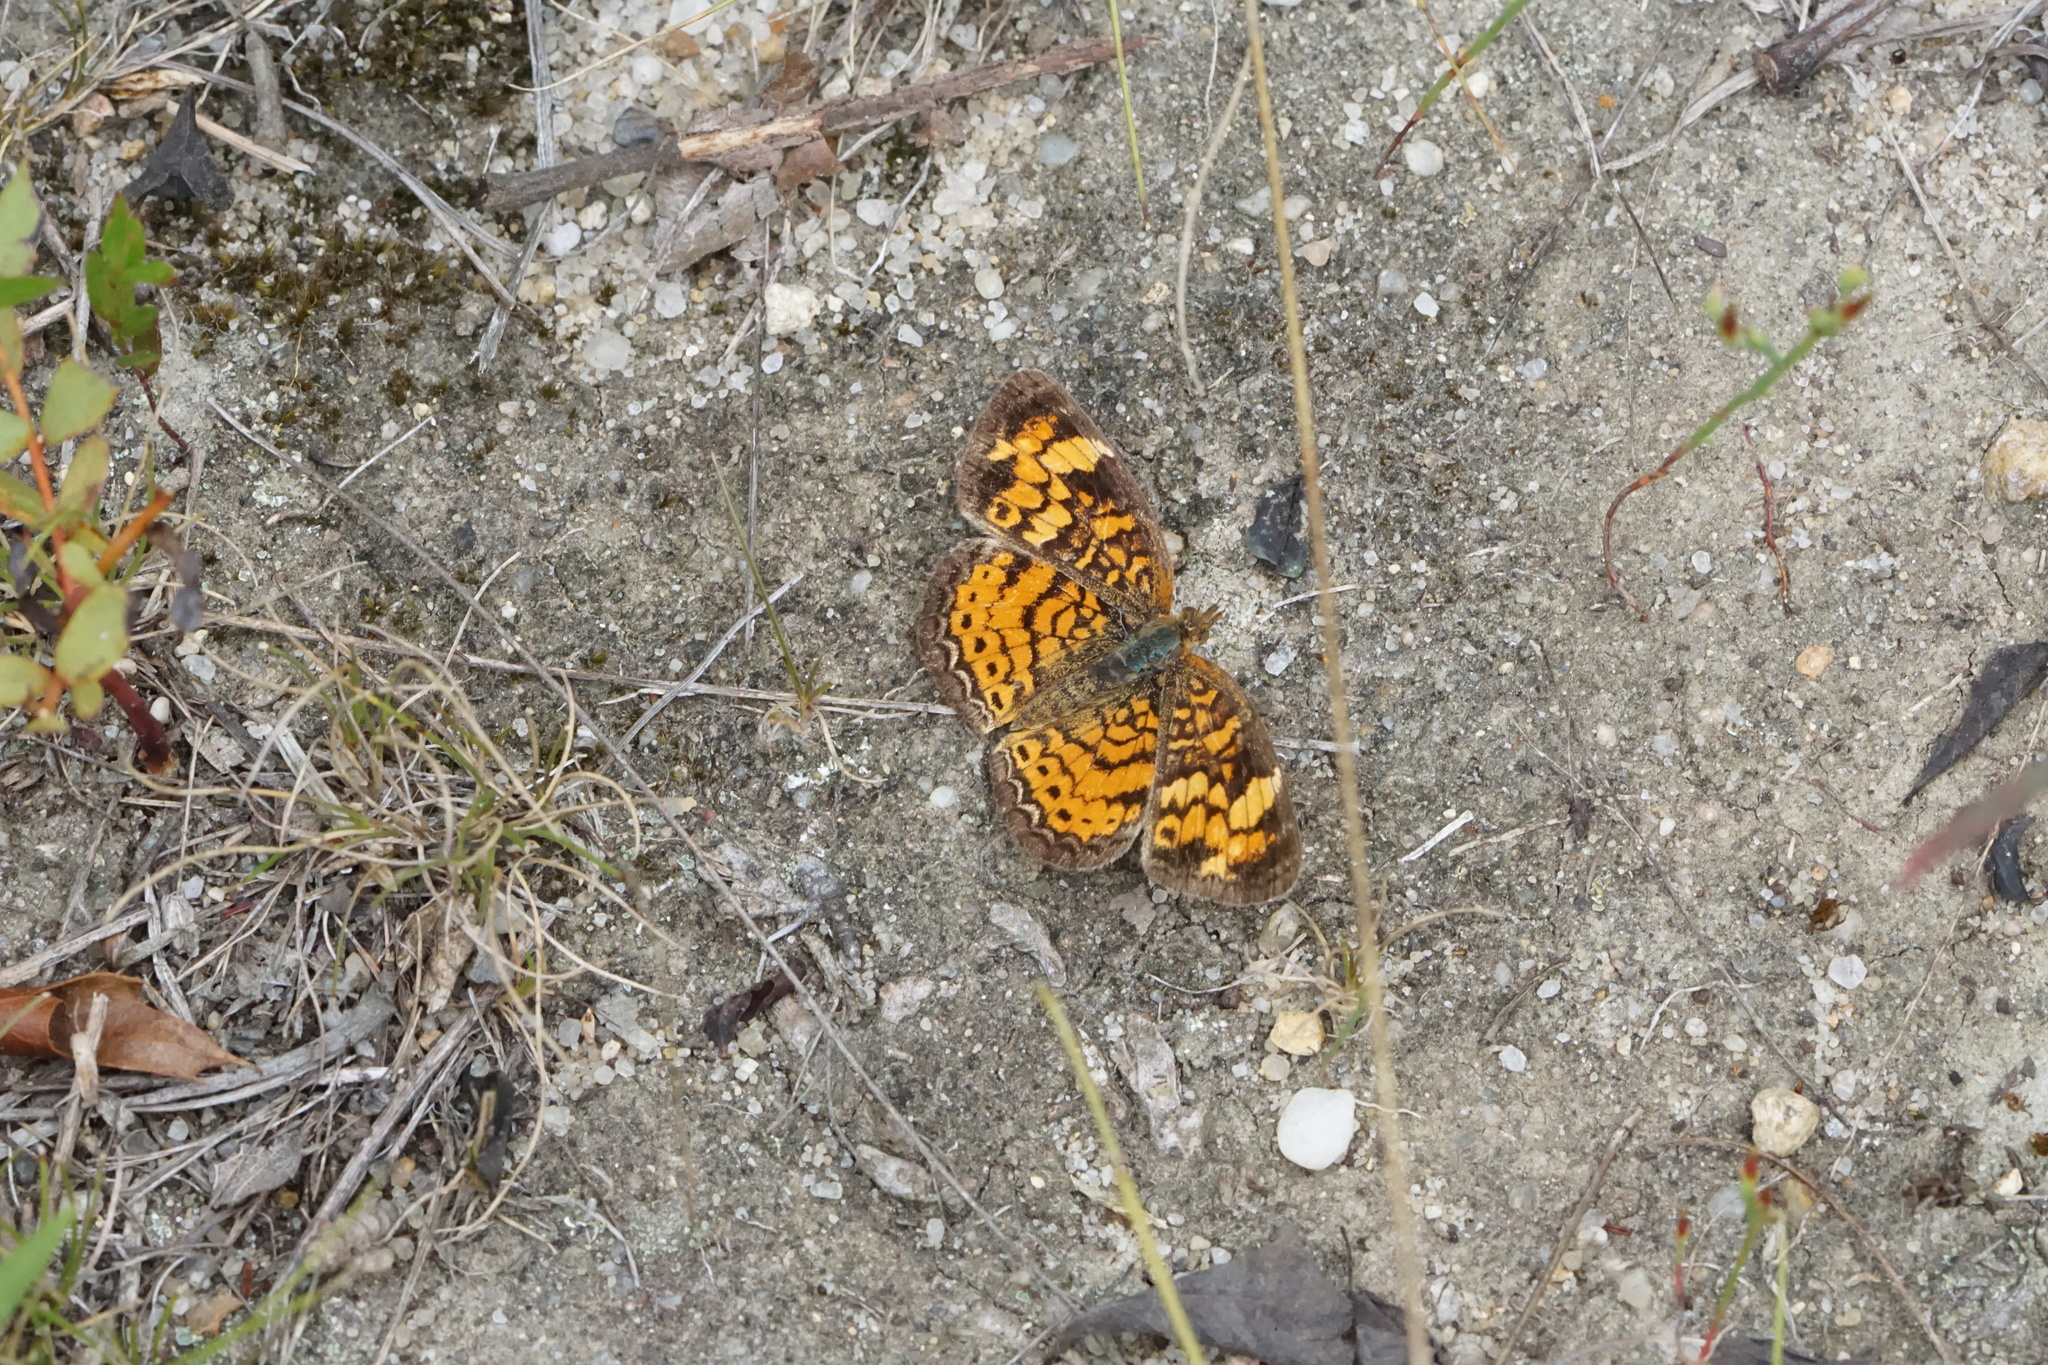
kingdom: Animalia
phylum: Arthropoda
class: Insecta
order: Lepidoptera
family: Nymphalidae
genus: Phyciodes
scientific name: Phyciodes tharos
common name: Pearl crescent
